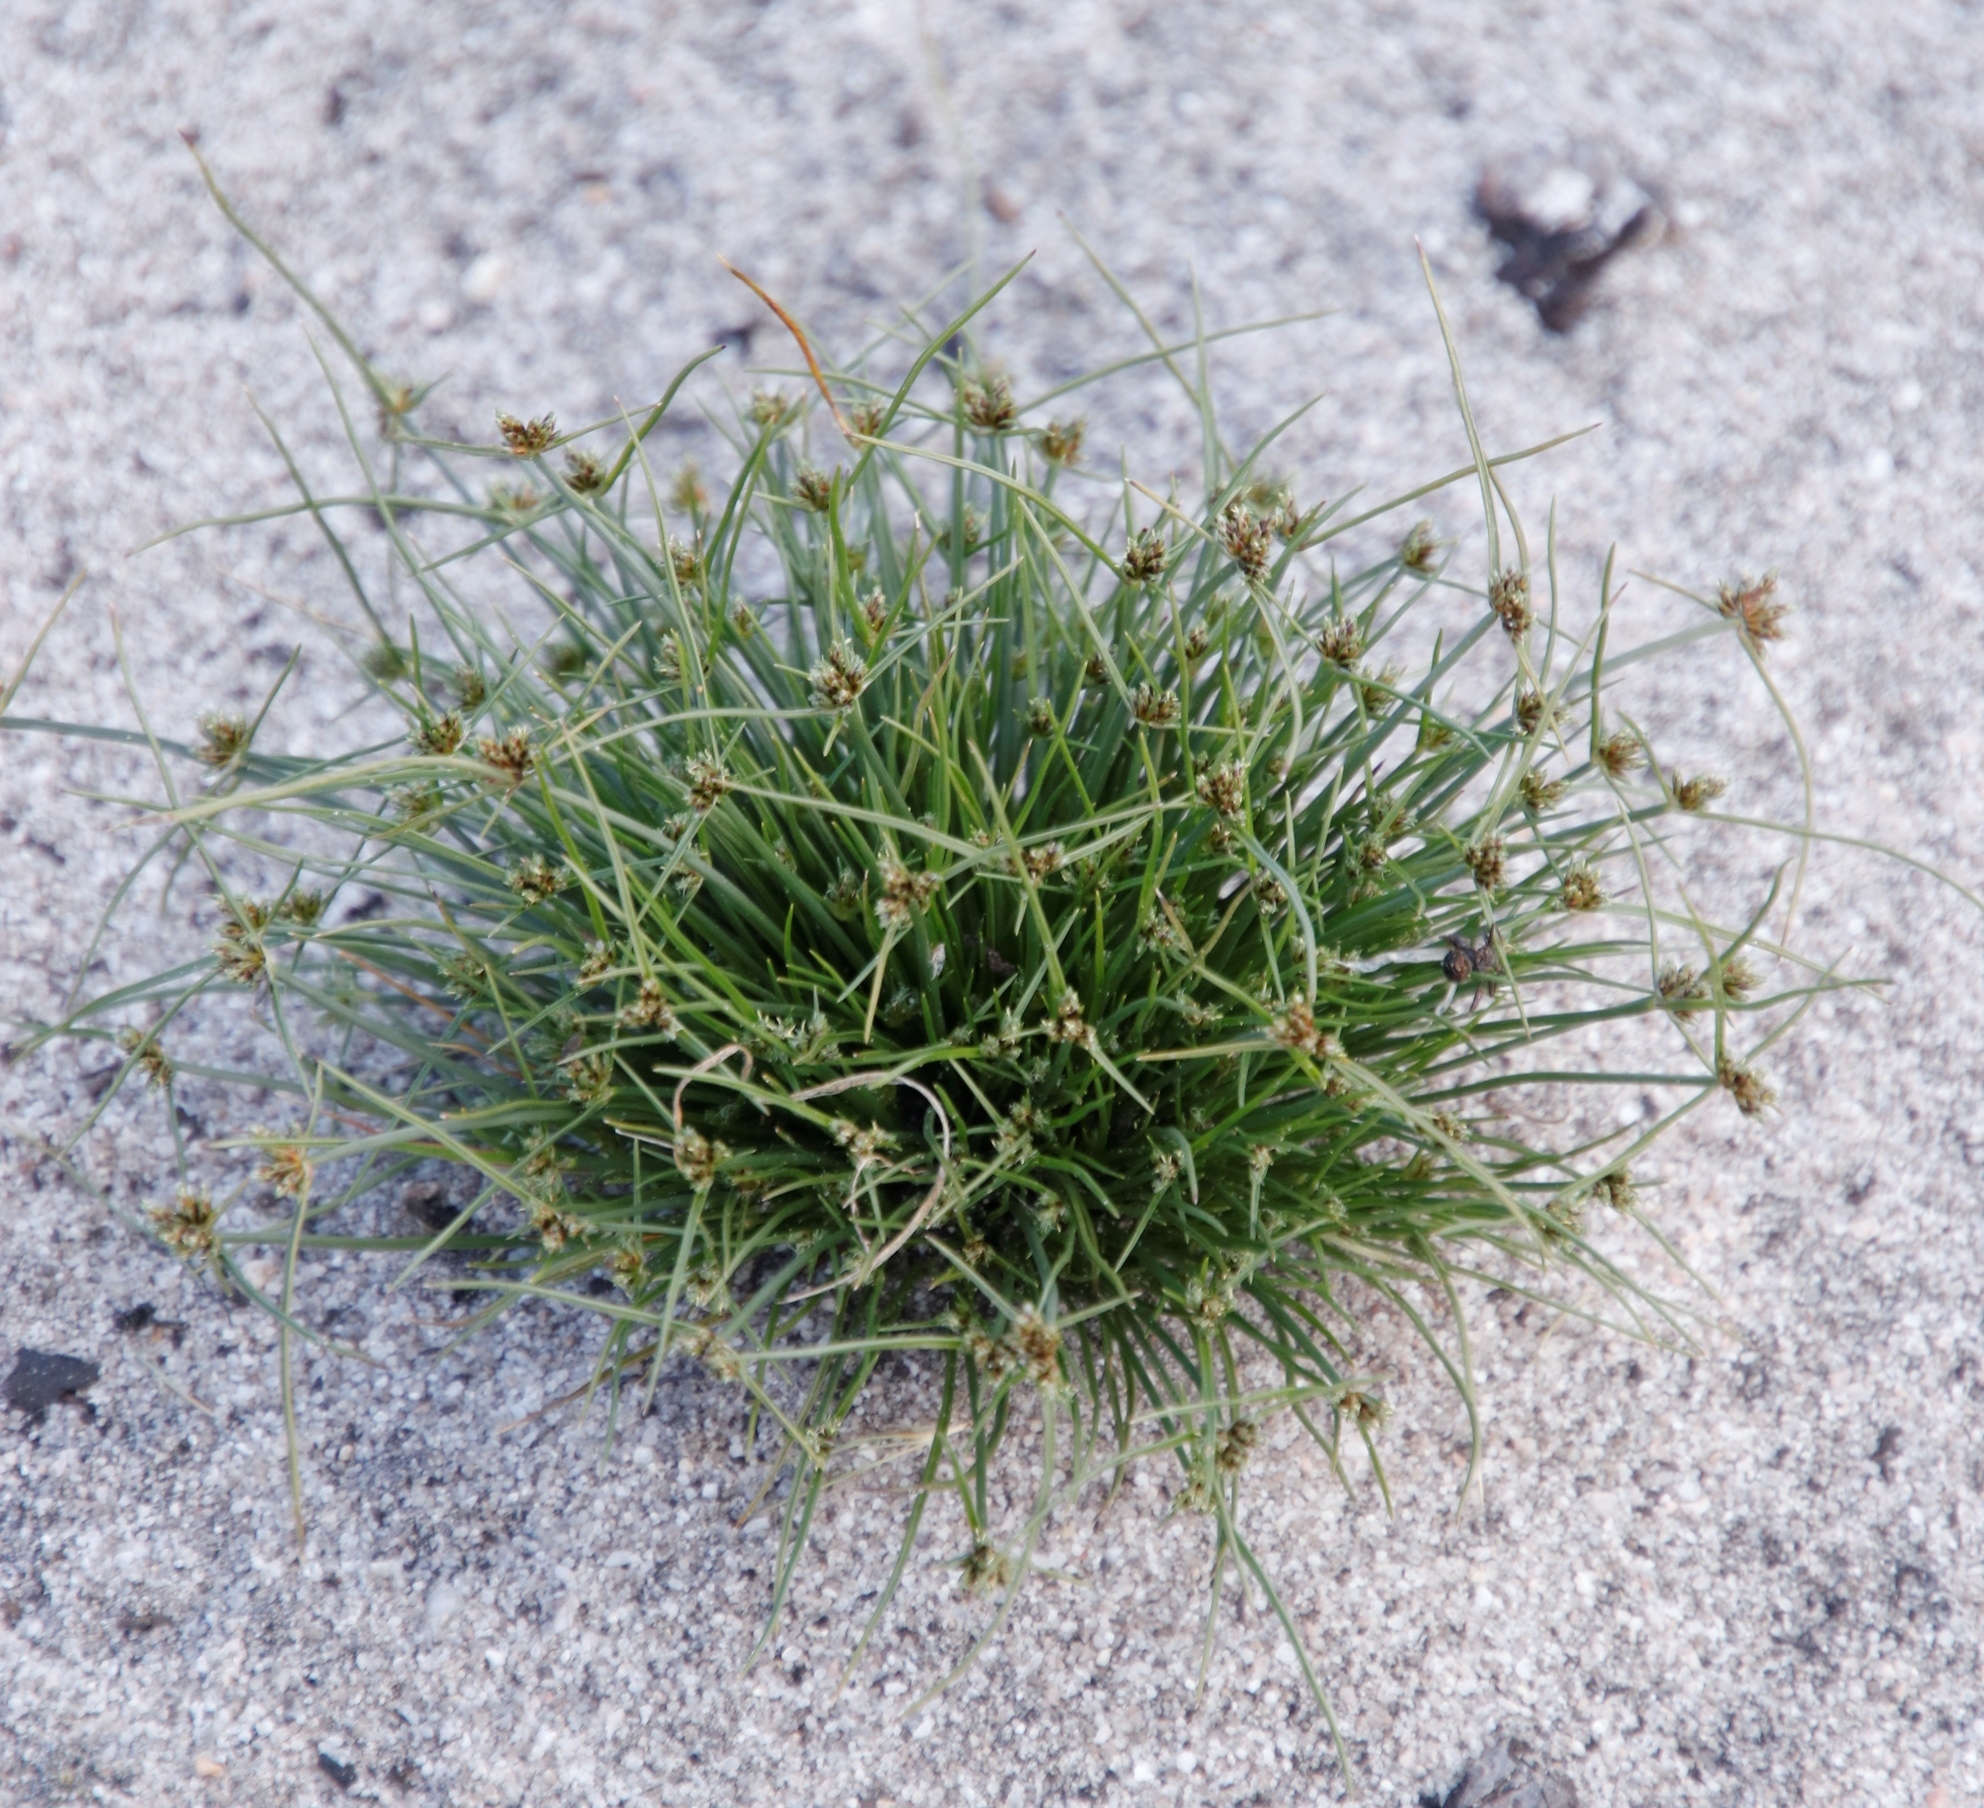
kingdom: Plantae
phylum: Tracheophyta
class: Liliopsida
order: Poales
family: Cyperaceae
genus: Isolepis
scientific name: Isolepis marginata
